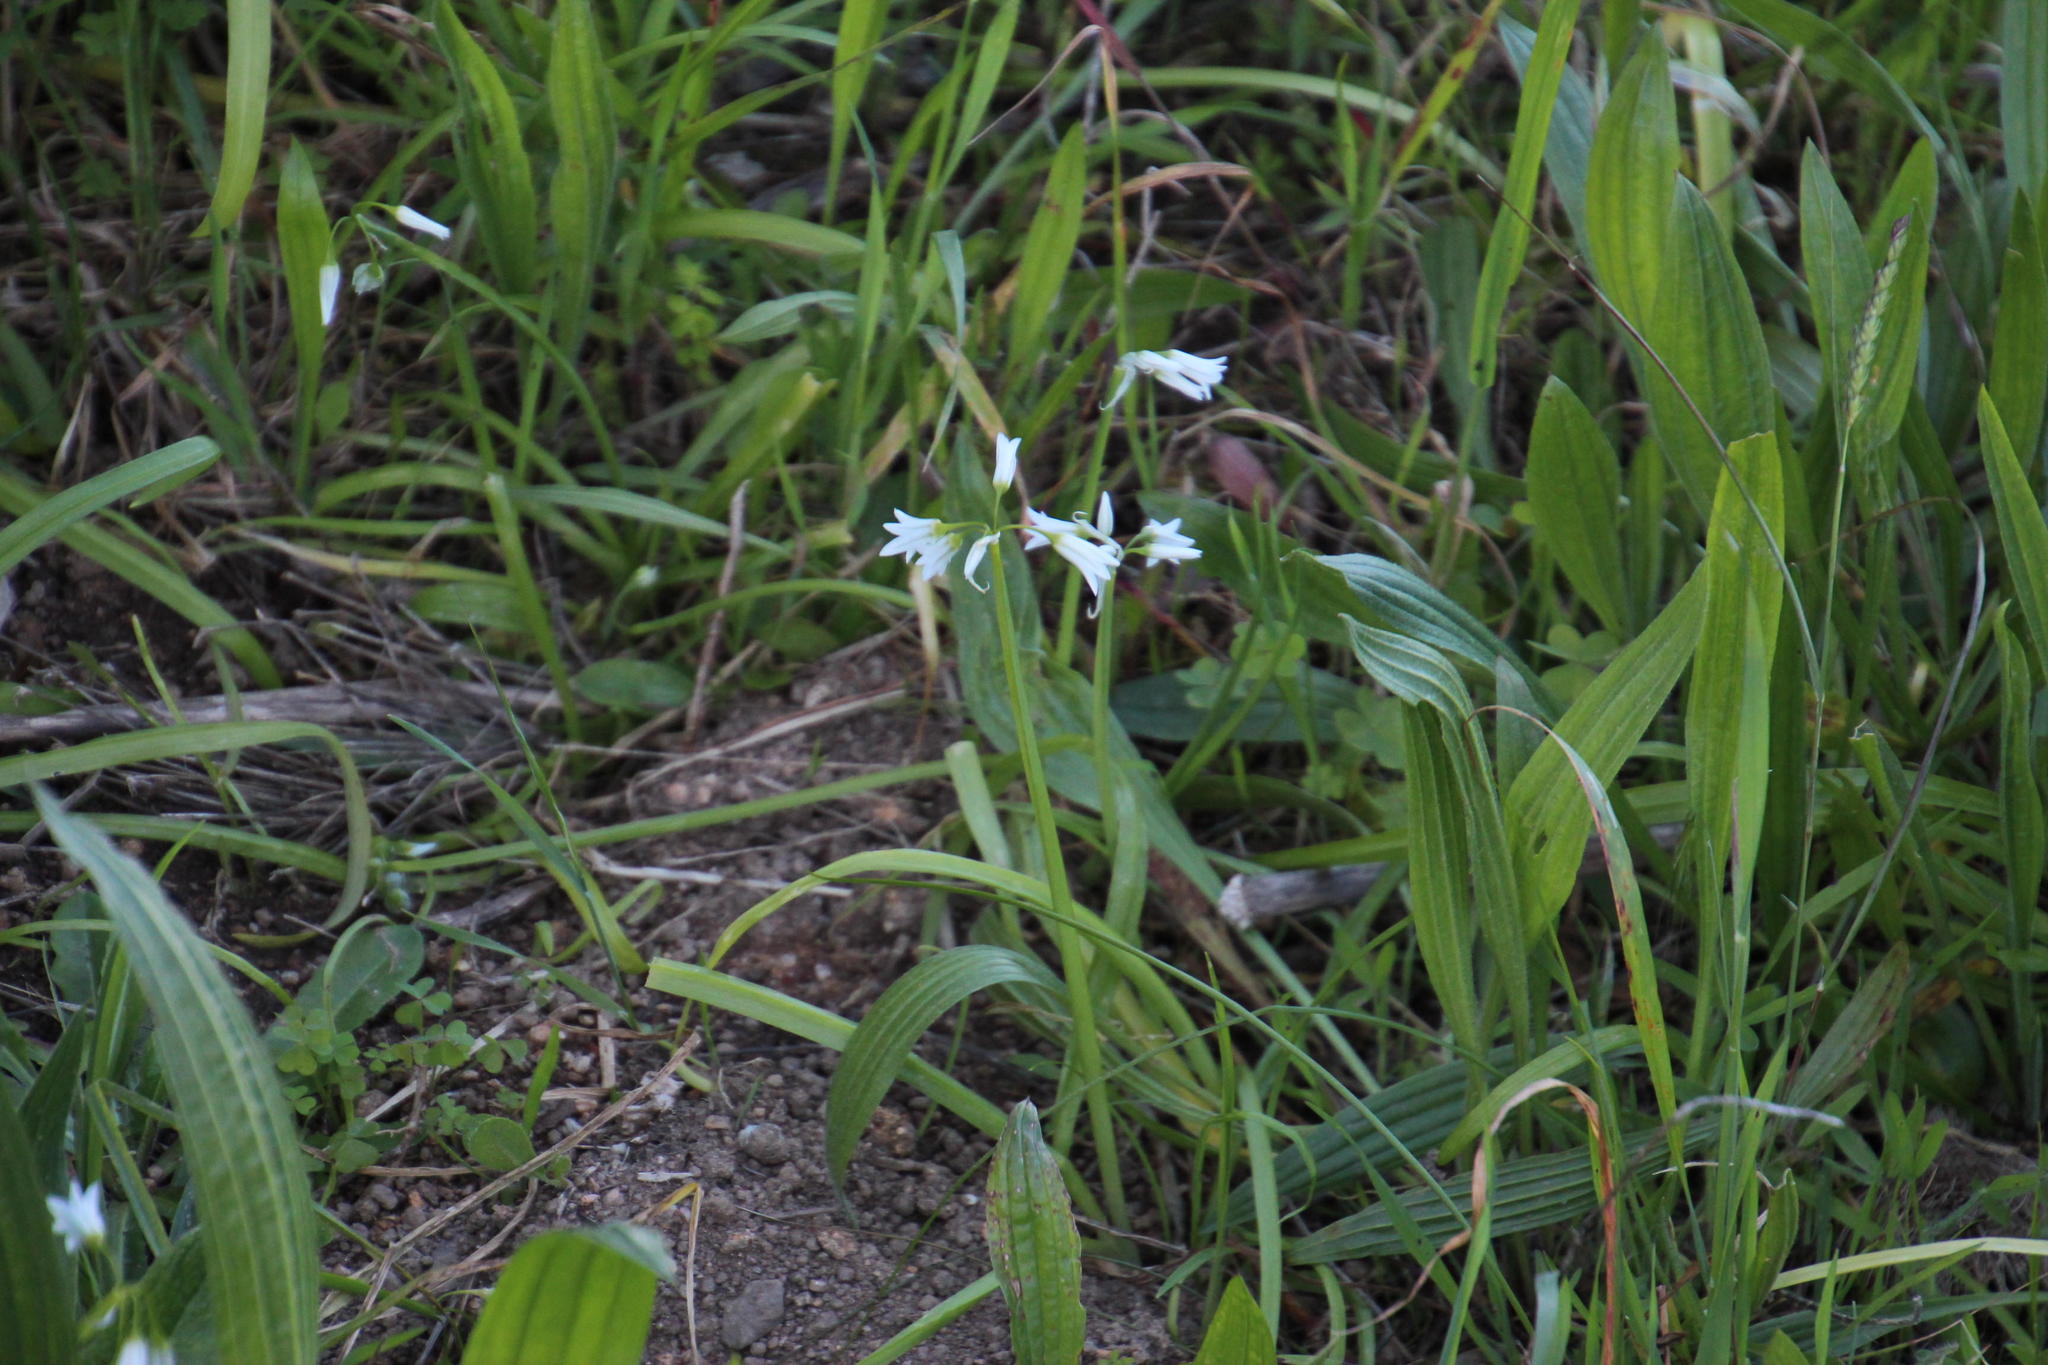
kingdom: Plantae
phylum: Tracheophyta
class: Liliopsida
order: Asparagales
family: Amaryllidaceae
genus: Allium
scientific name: Allium triquetrum
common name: Three-cornered garlic
